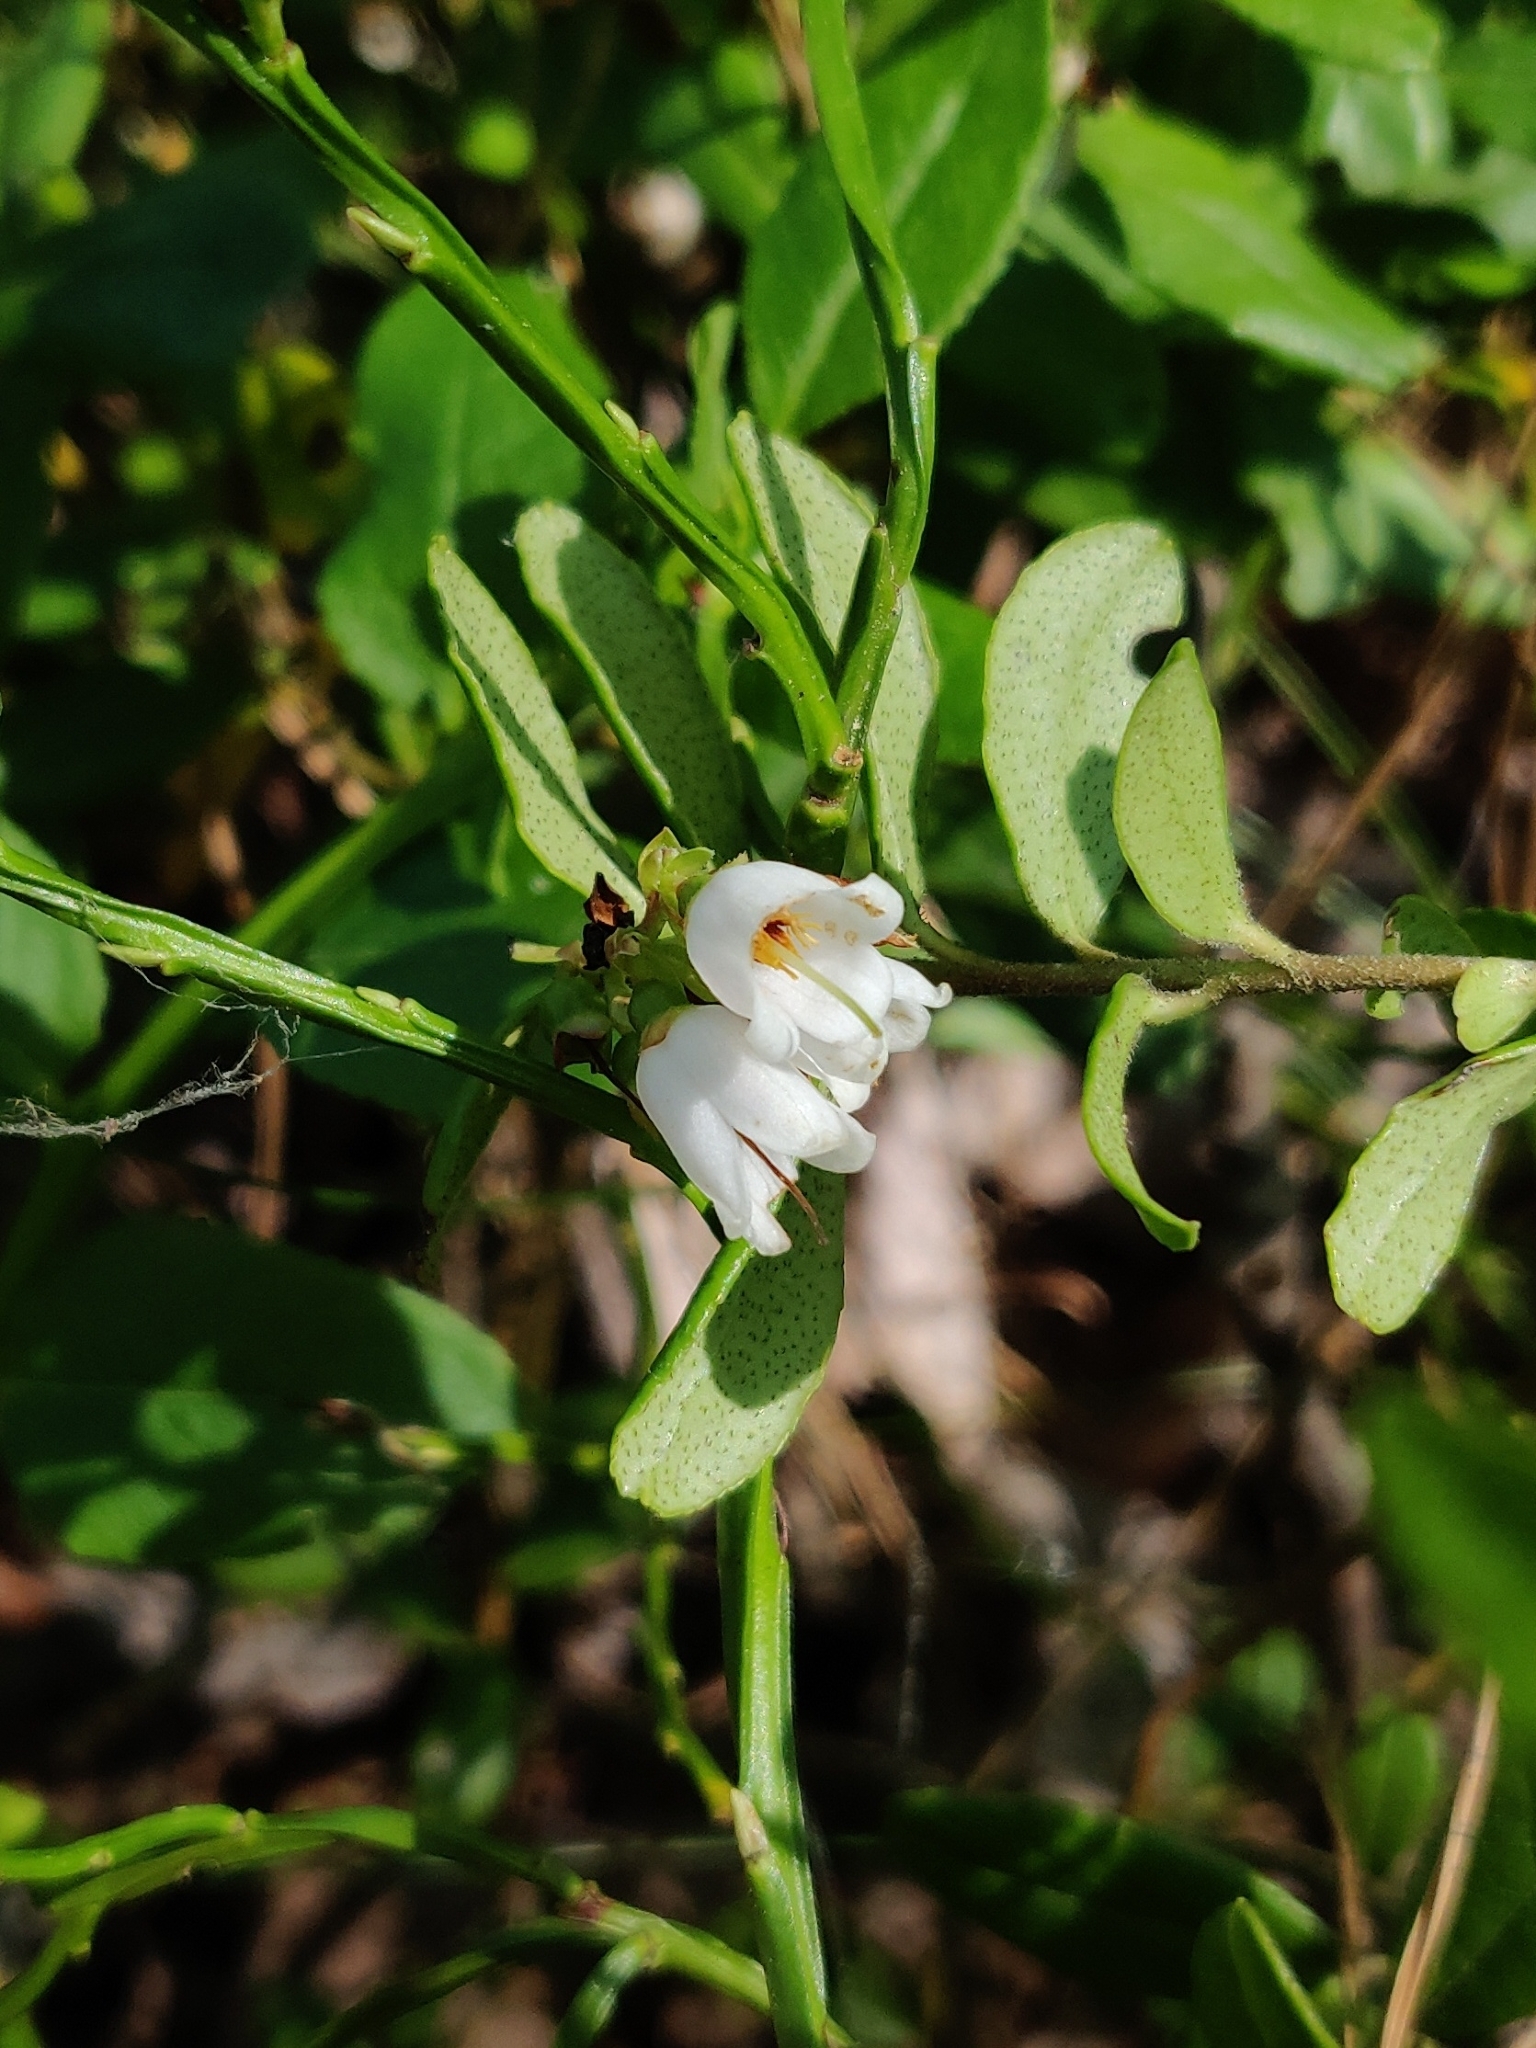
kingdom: Plantae
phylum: Tracheophyta
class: Magnoliopsida
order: Ericales
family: Ericaceae
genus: Vaccinium
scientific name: Vaccinium vitis-idaea
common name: Cowberry
